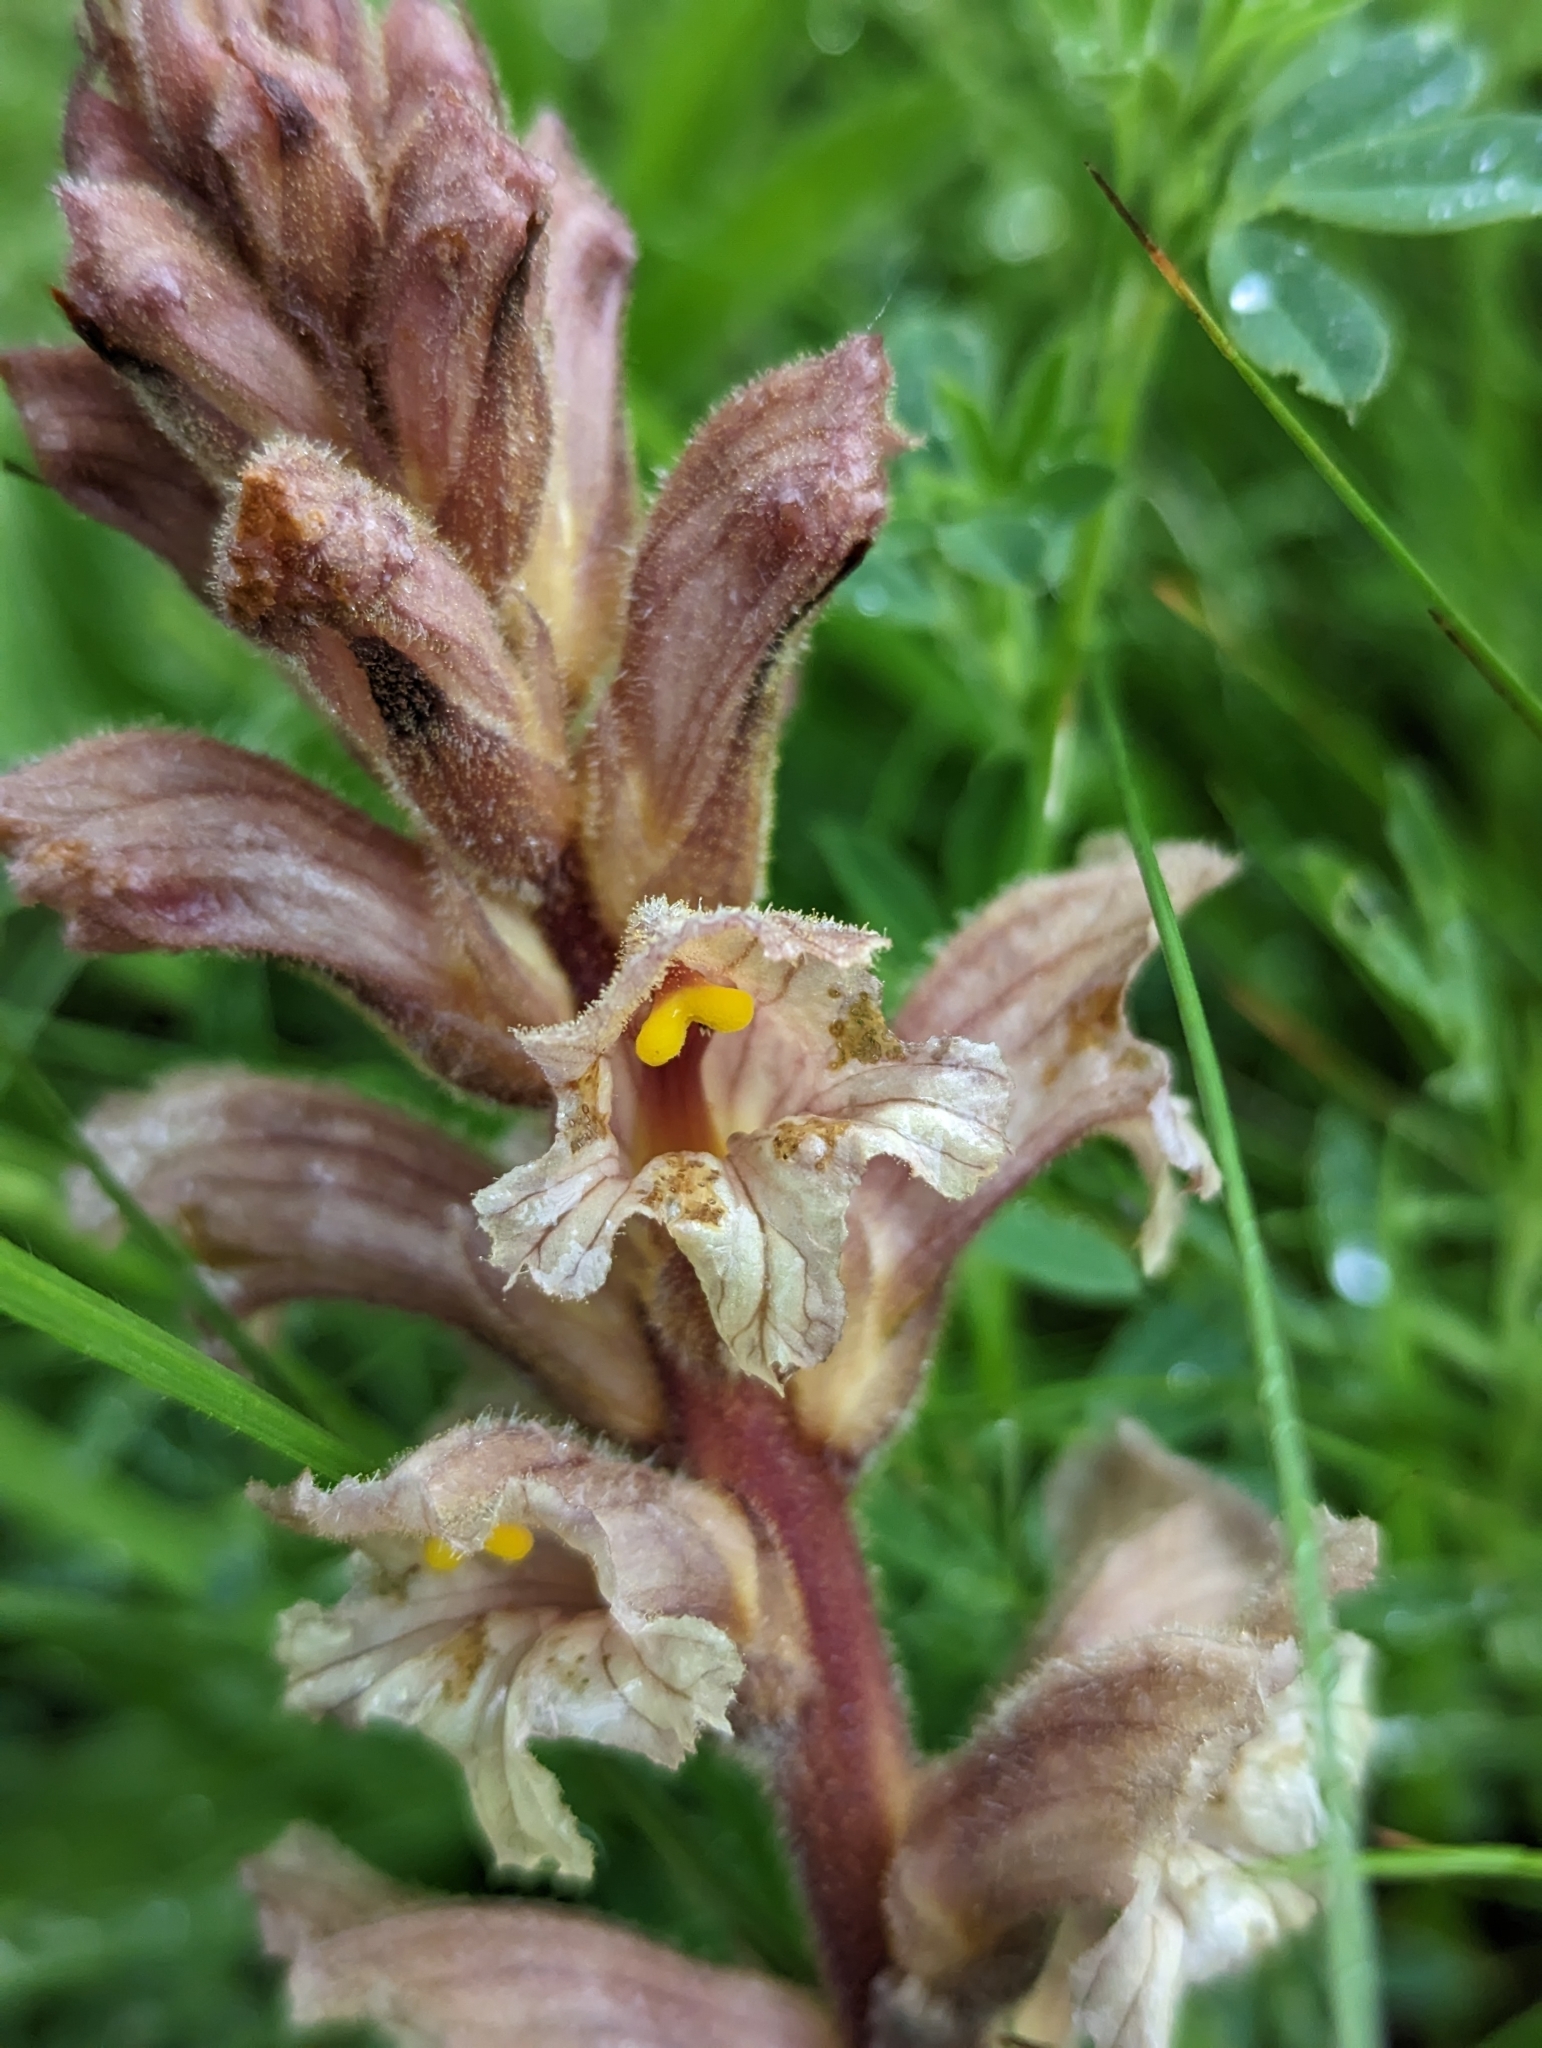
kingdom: Plantae
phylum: Tracheophyta
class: Magnoliopsida
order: Lamiales
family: Orobanchaceae
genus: Orobanche
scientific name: Orobanche lutea
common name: Yellow broomrape
